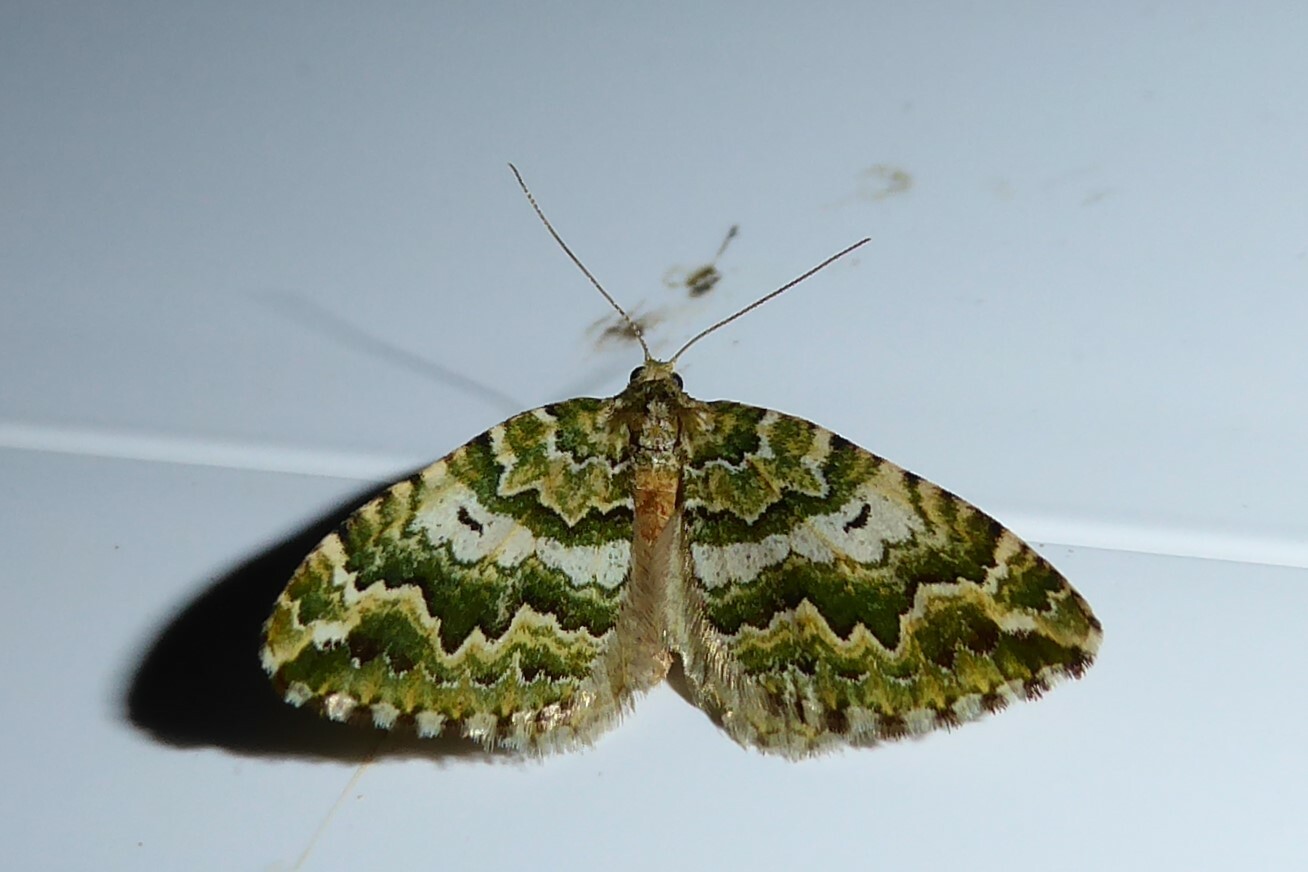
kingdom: Animalia
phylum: Arthropoda
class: Insecta
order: Lepidoptera
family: Geometridae
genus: Asaphodes
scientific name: Asaphodes beata
